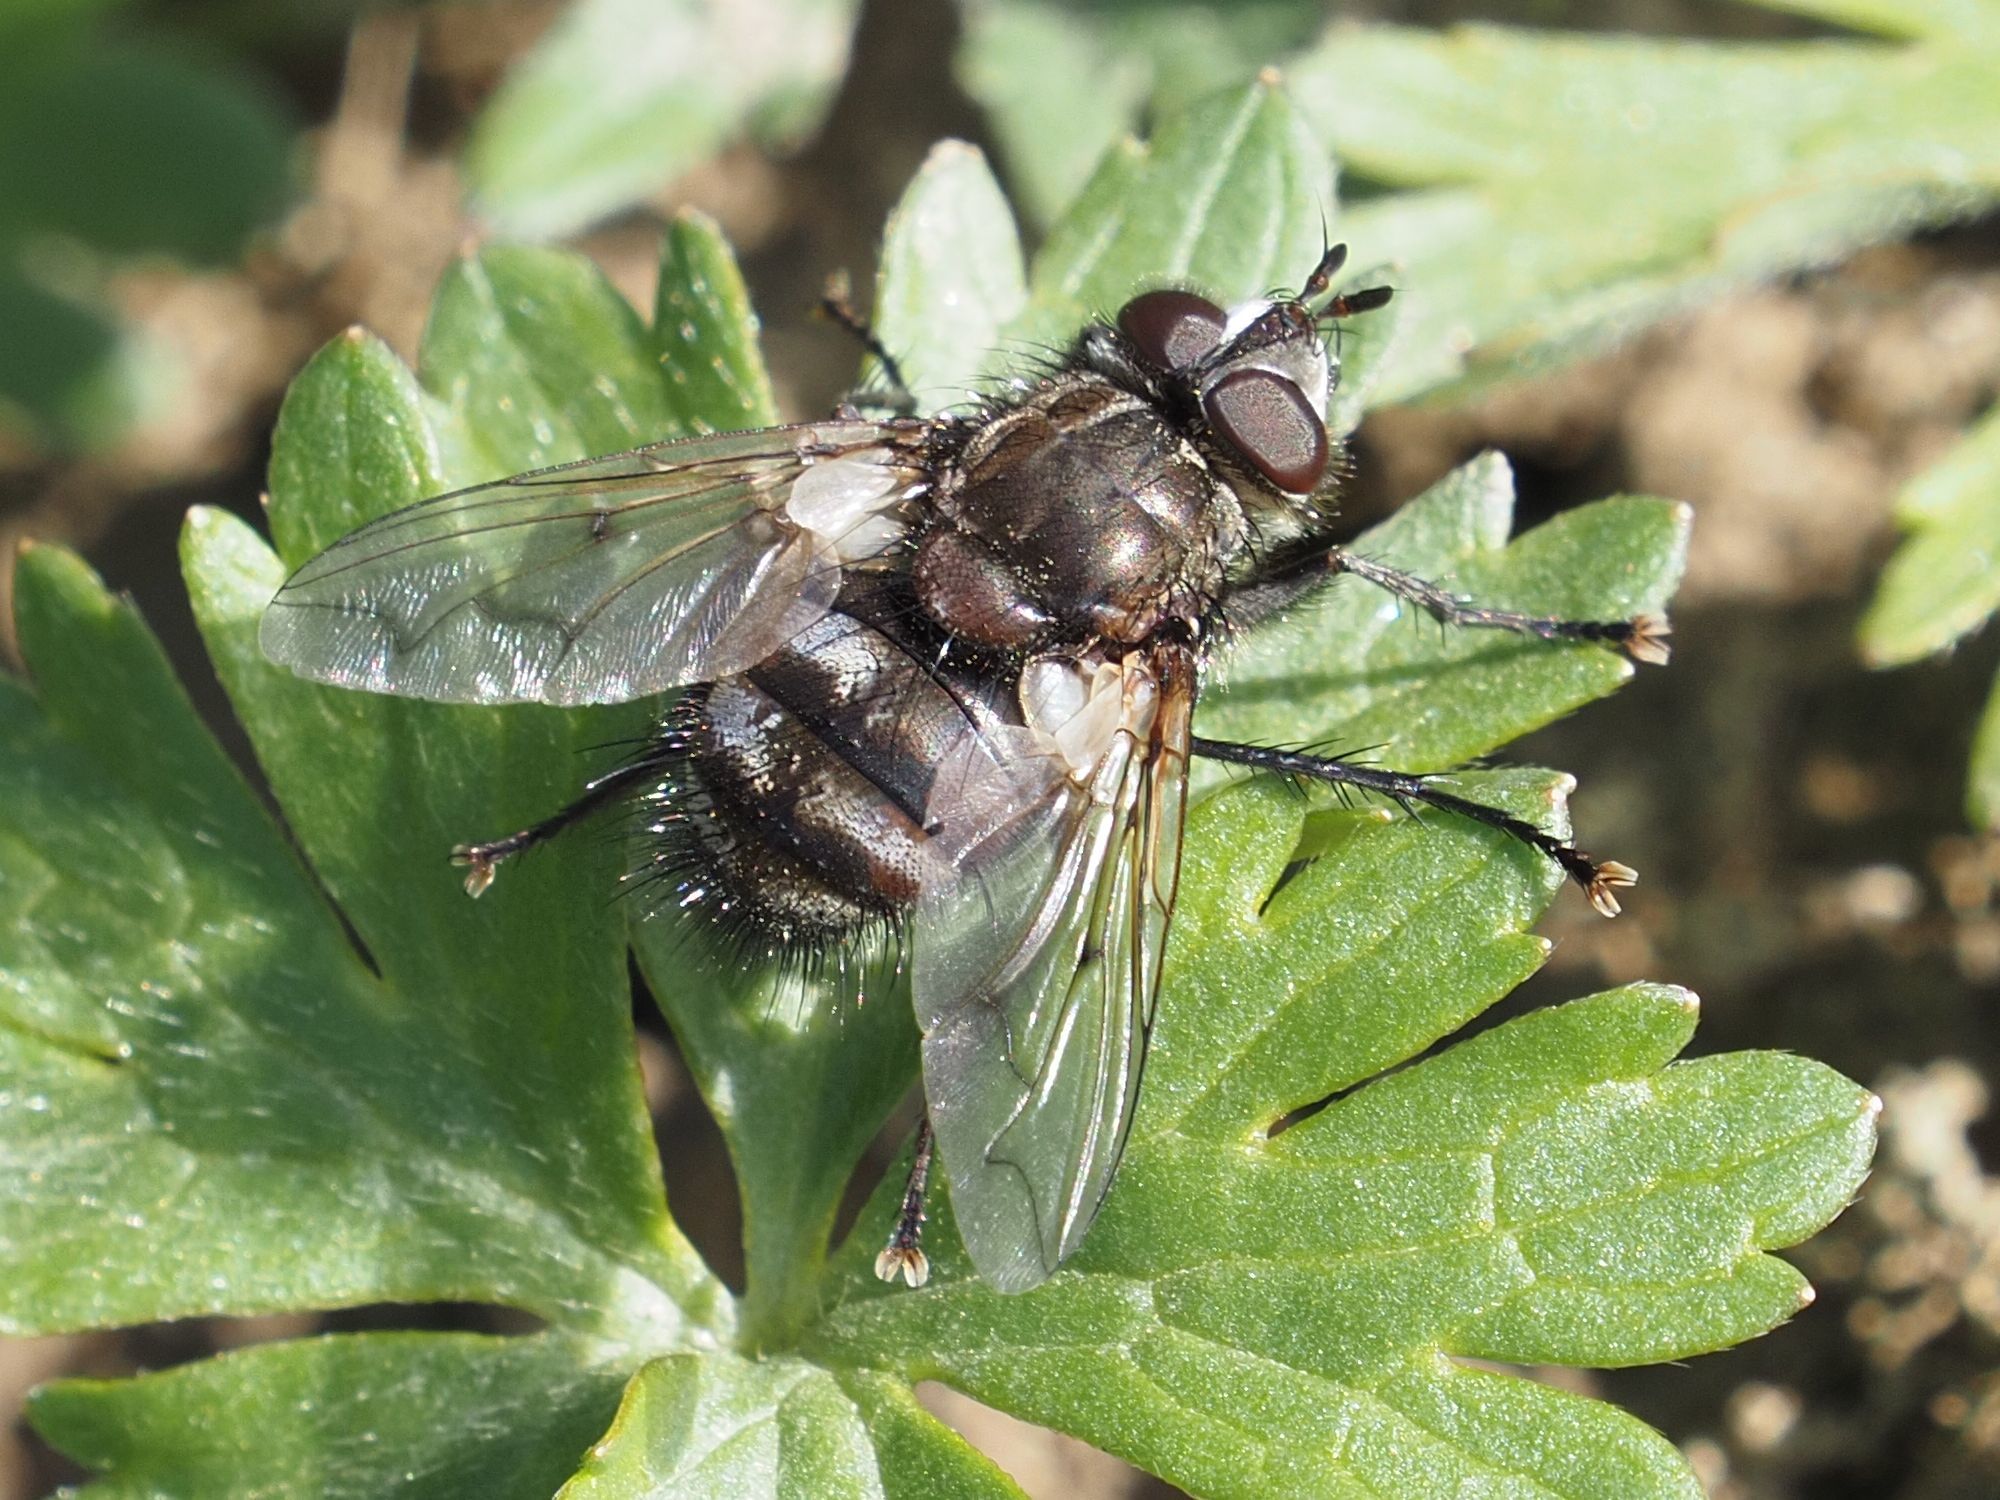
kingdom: Animalia
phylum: Arthropoda
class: Insecta
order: Diptera
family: Tachinidae
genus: Panzeria
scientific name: Panzeria puparum
